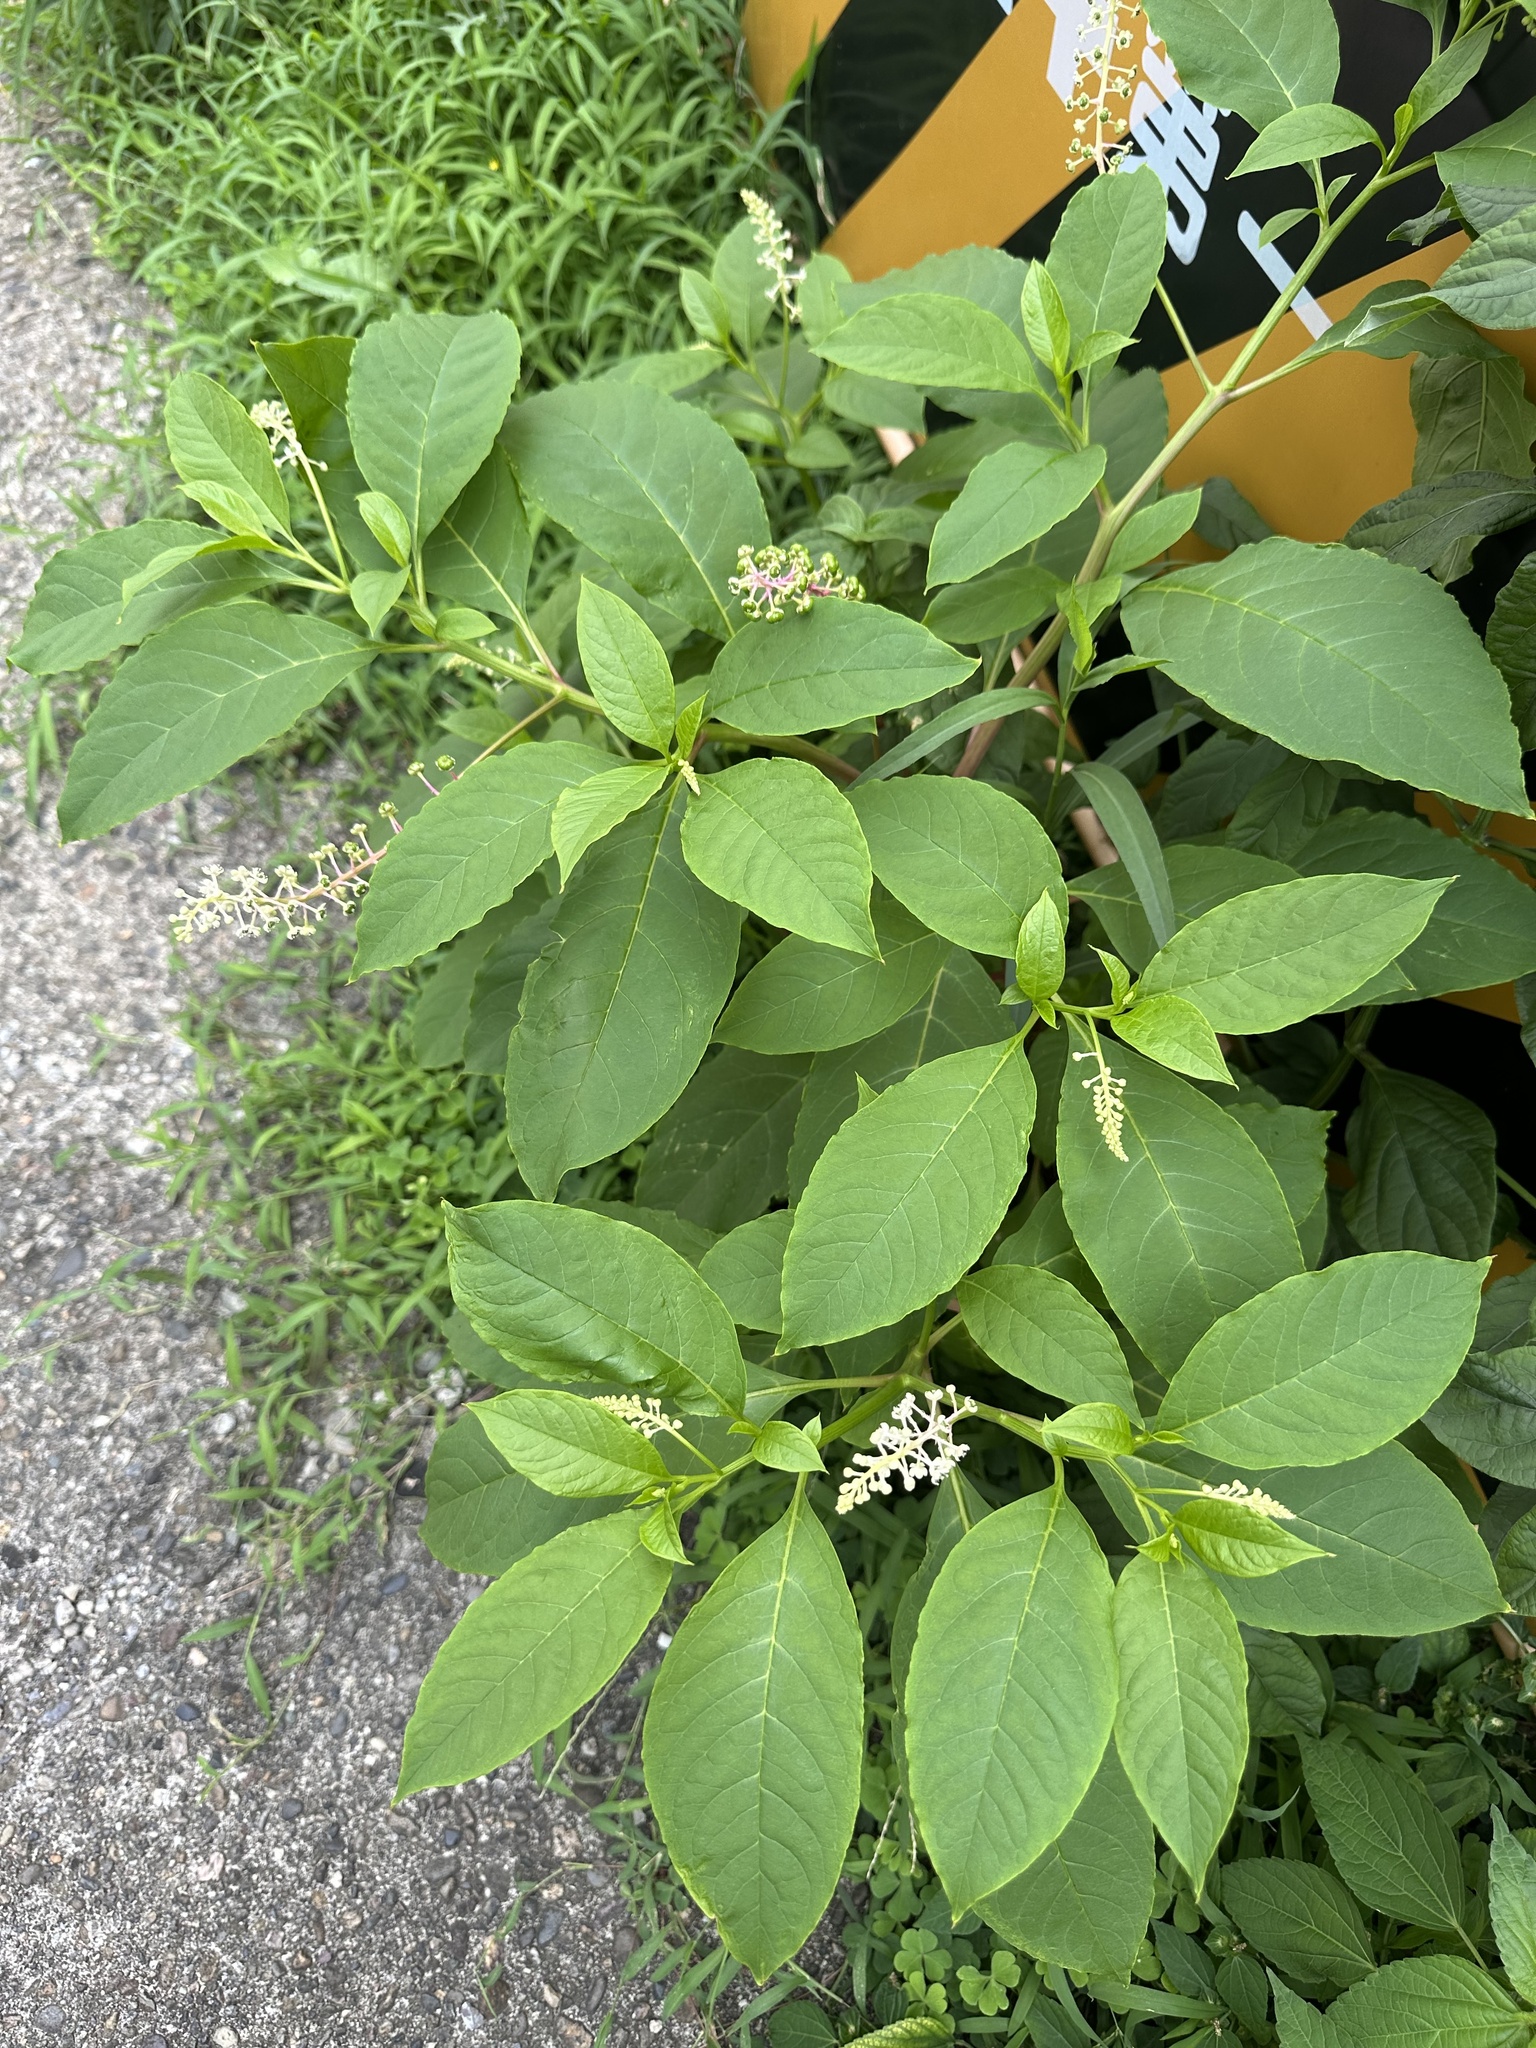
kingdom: Plantae
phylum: Tracheophyta
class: Magnoliopsida
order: Caryophyllales
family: Phytolaccaceae
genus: Phytolacca
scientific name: Phytolacca americana
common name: American pokeweed
